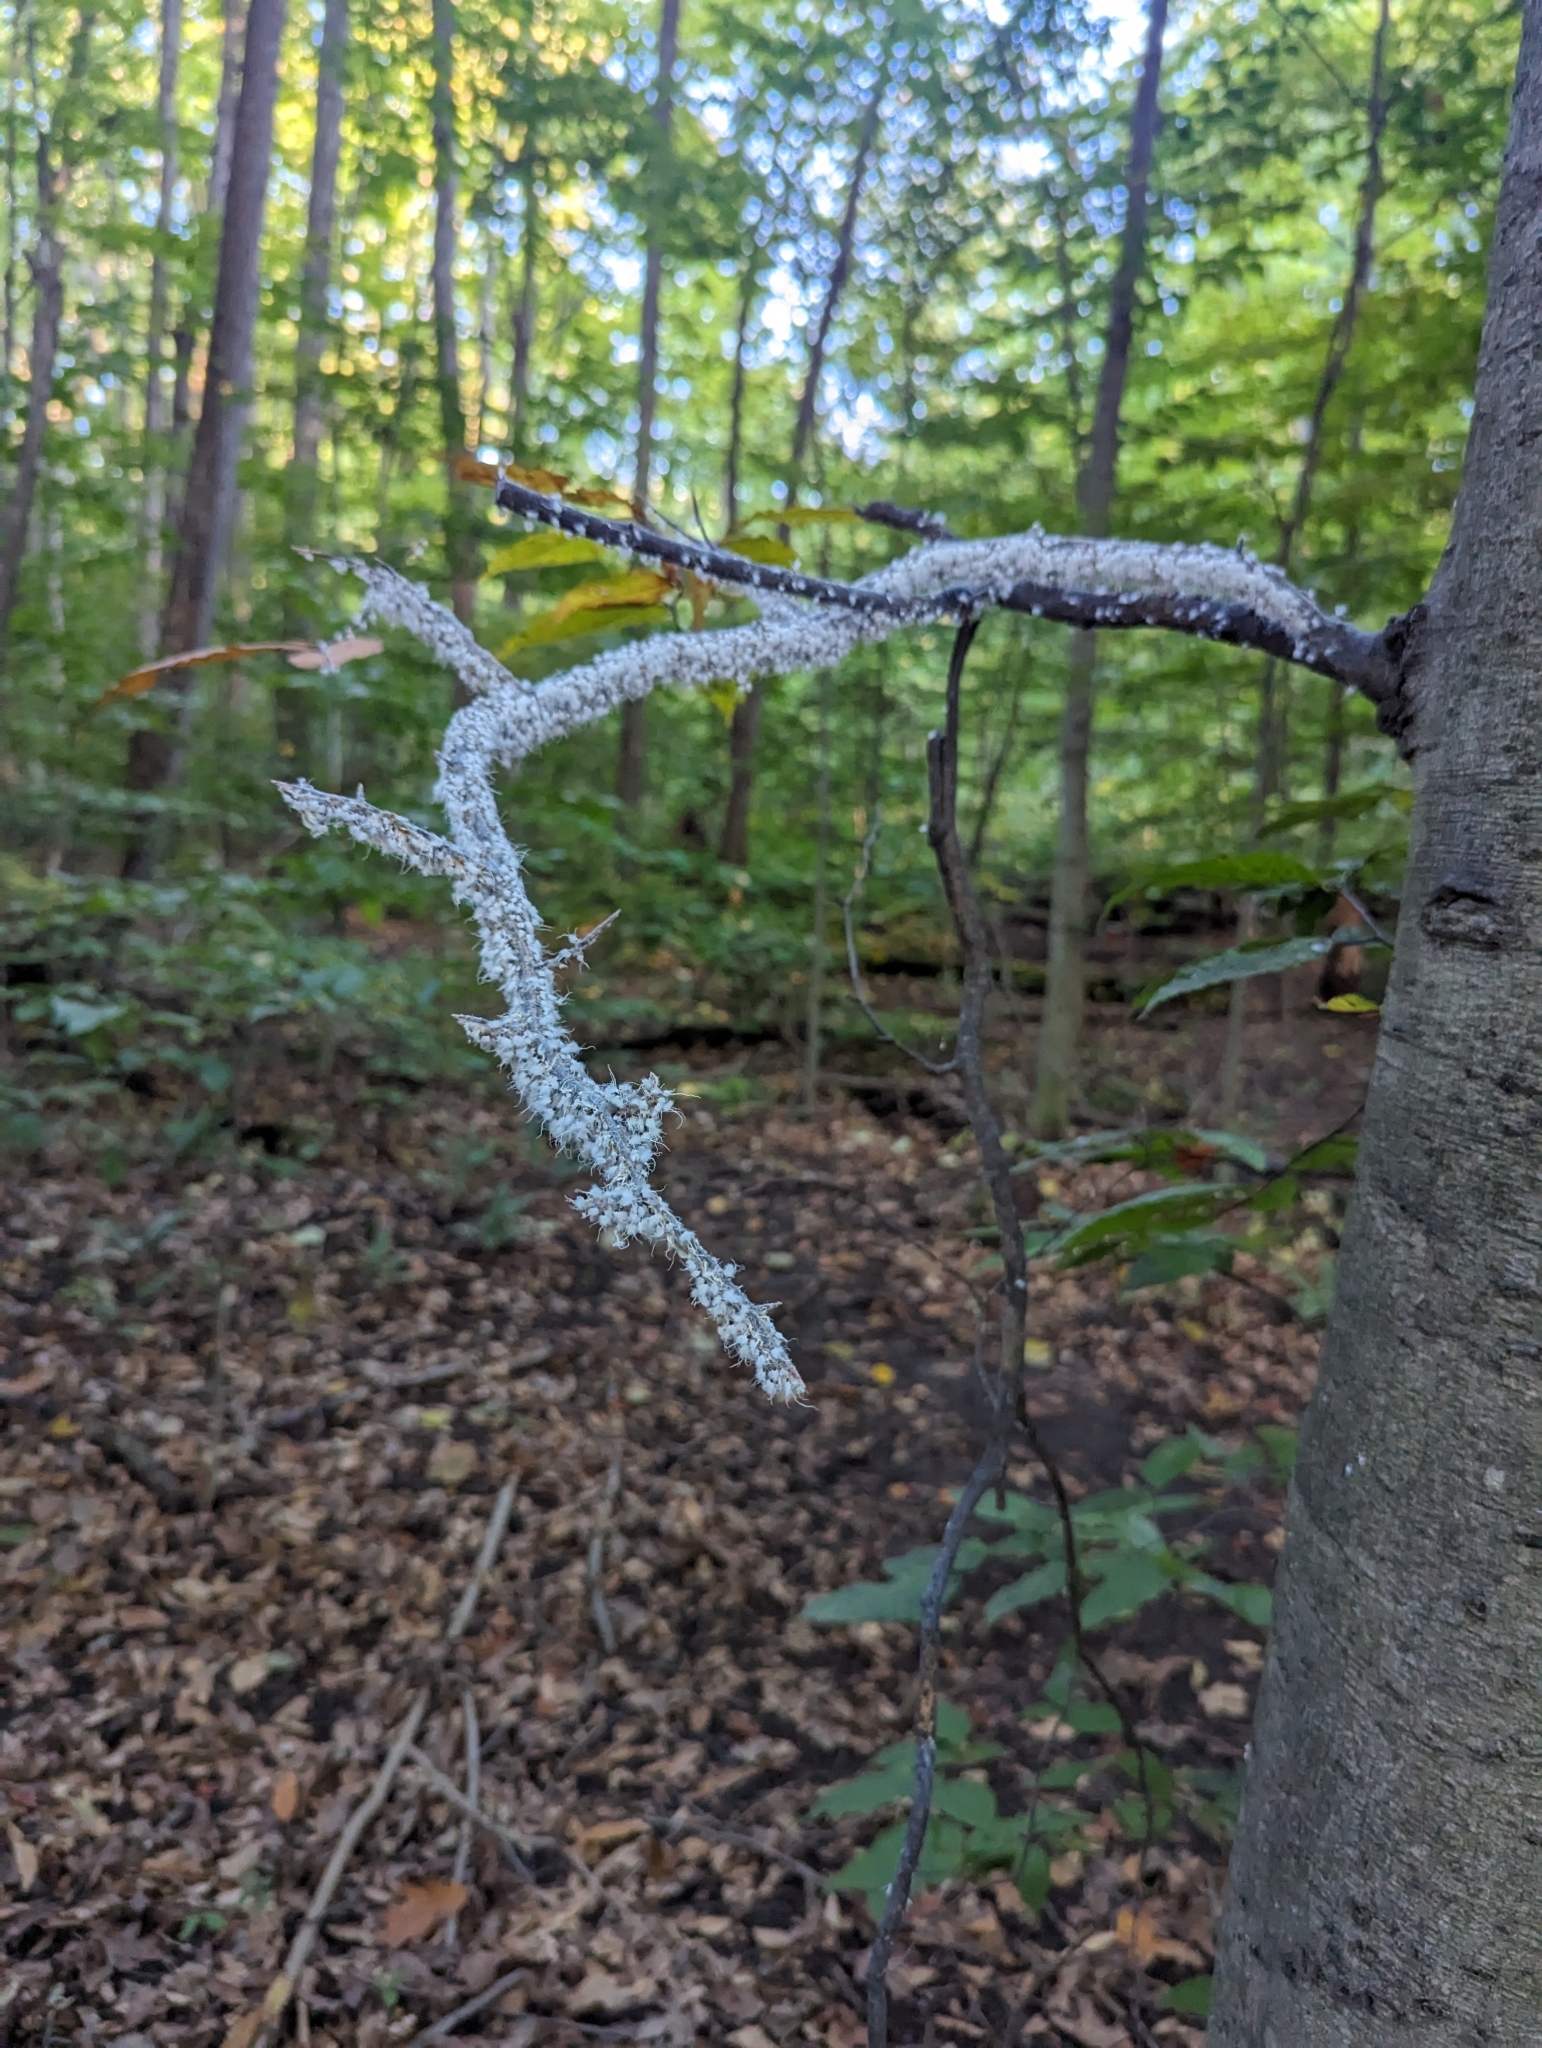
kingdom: Animalia
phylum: Arthropoda
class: Insecta
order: Hemiptera
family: Aphididae
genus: Grylloprociphilus
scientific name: Grylloprociphilus imbricator
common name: Beech blight aphid
